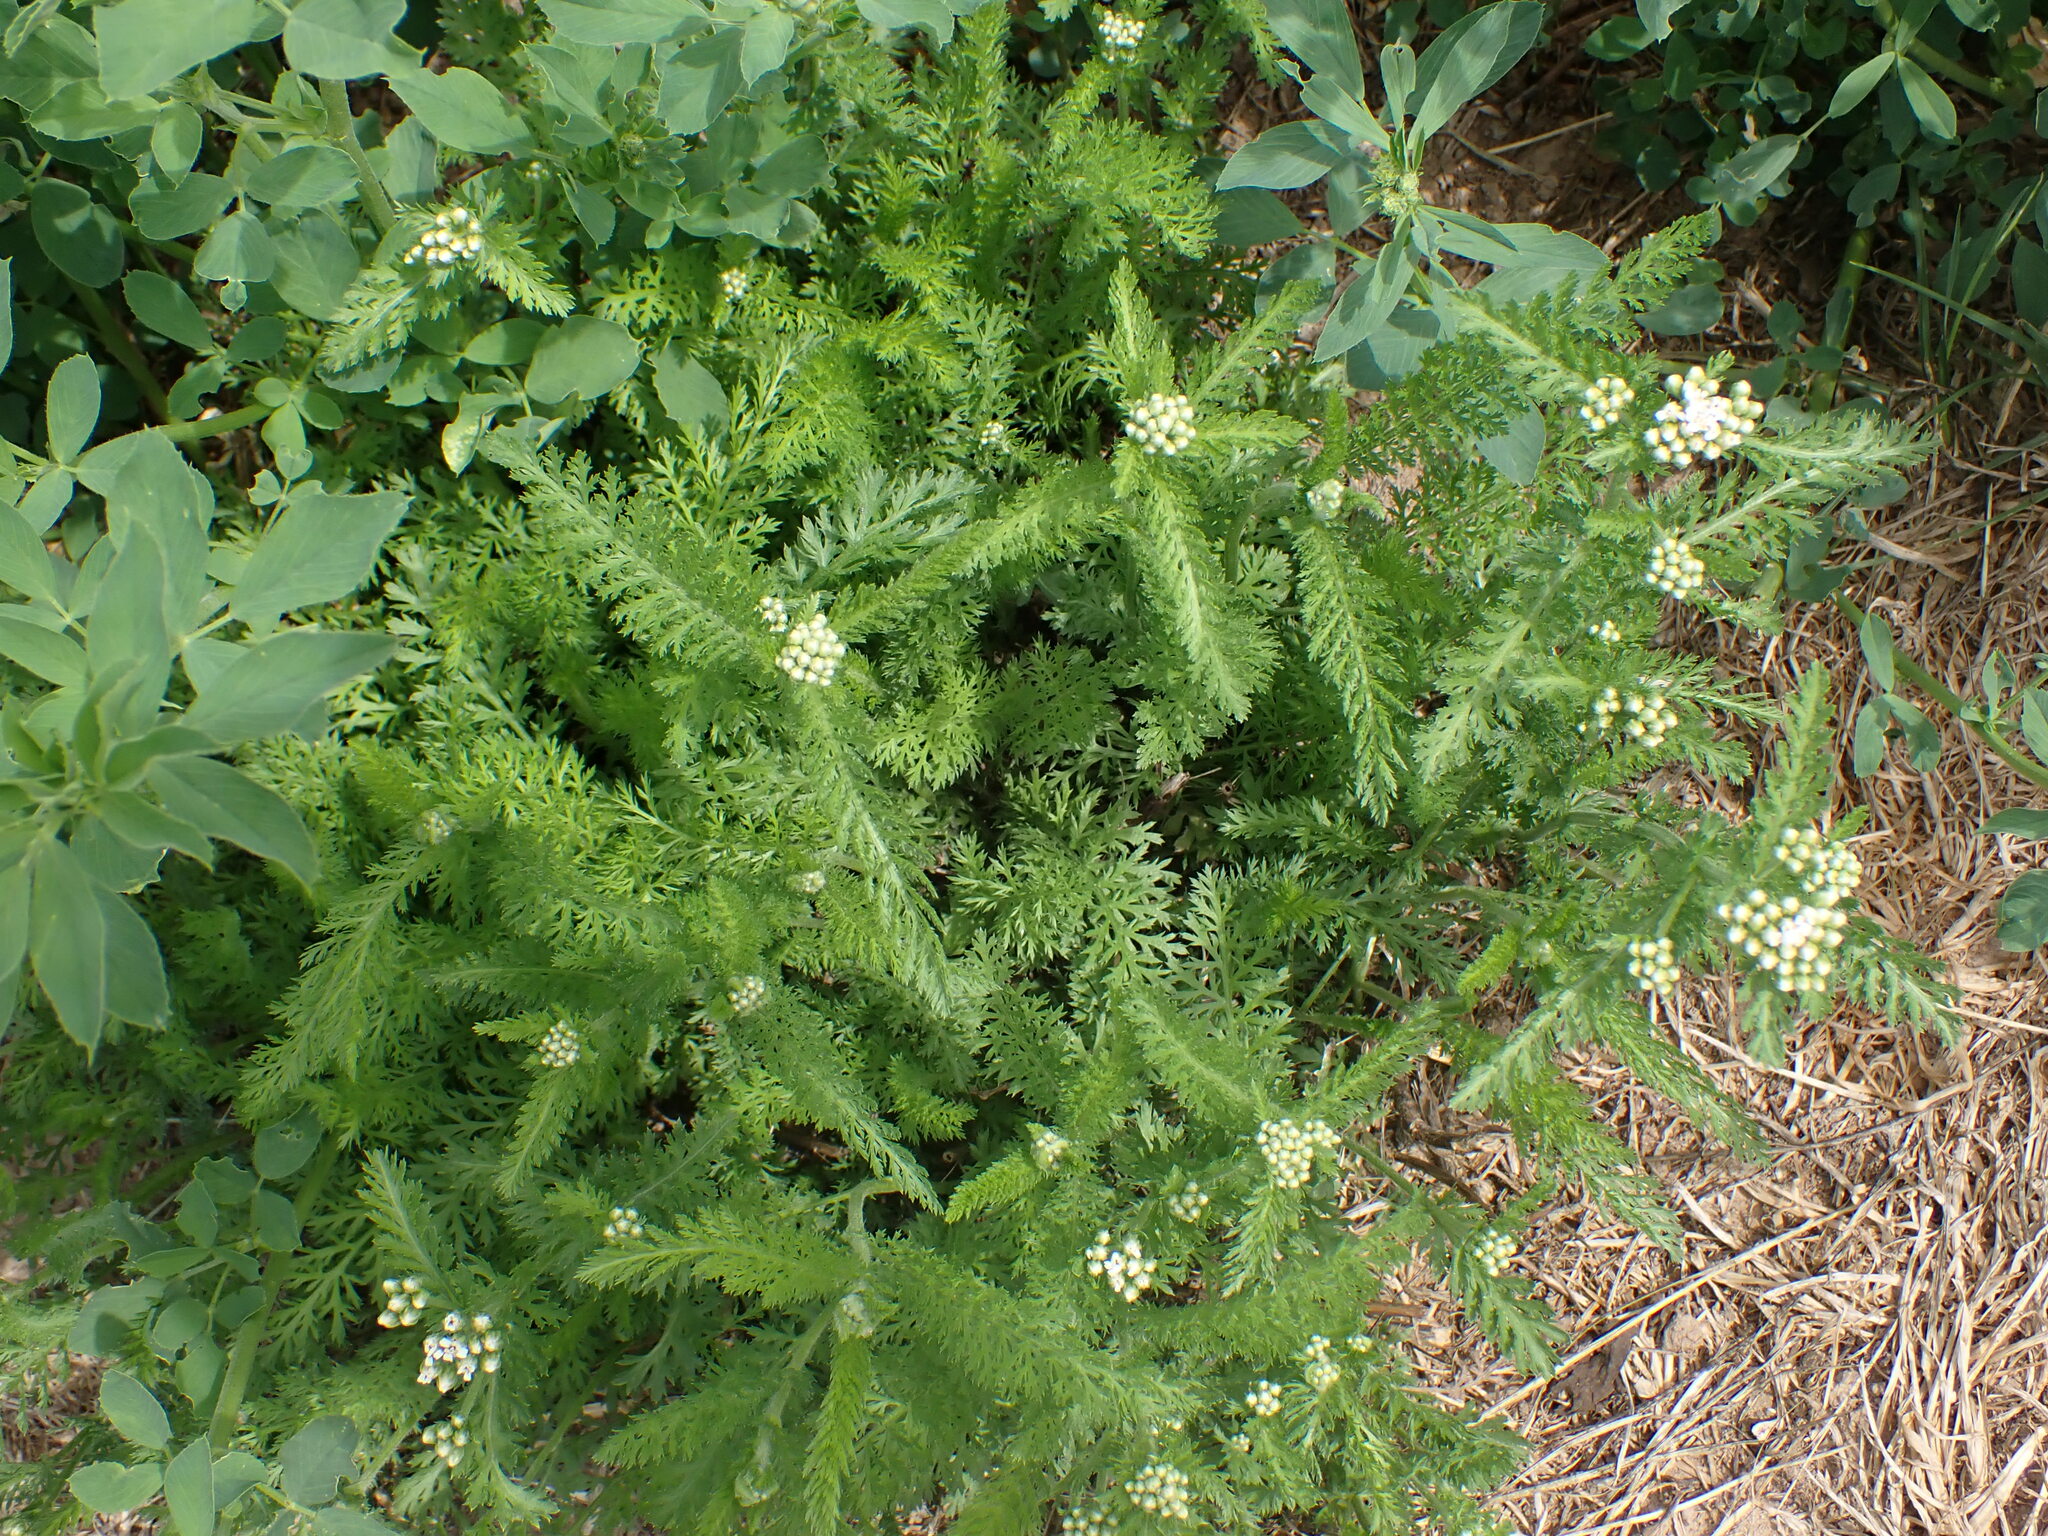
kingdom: Plantae
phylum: Tracheophyta
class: Magnoliopsida
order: Asterales
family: Asteraceae
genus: Achillea
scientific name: Achillea millefolium
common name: Yarrow
